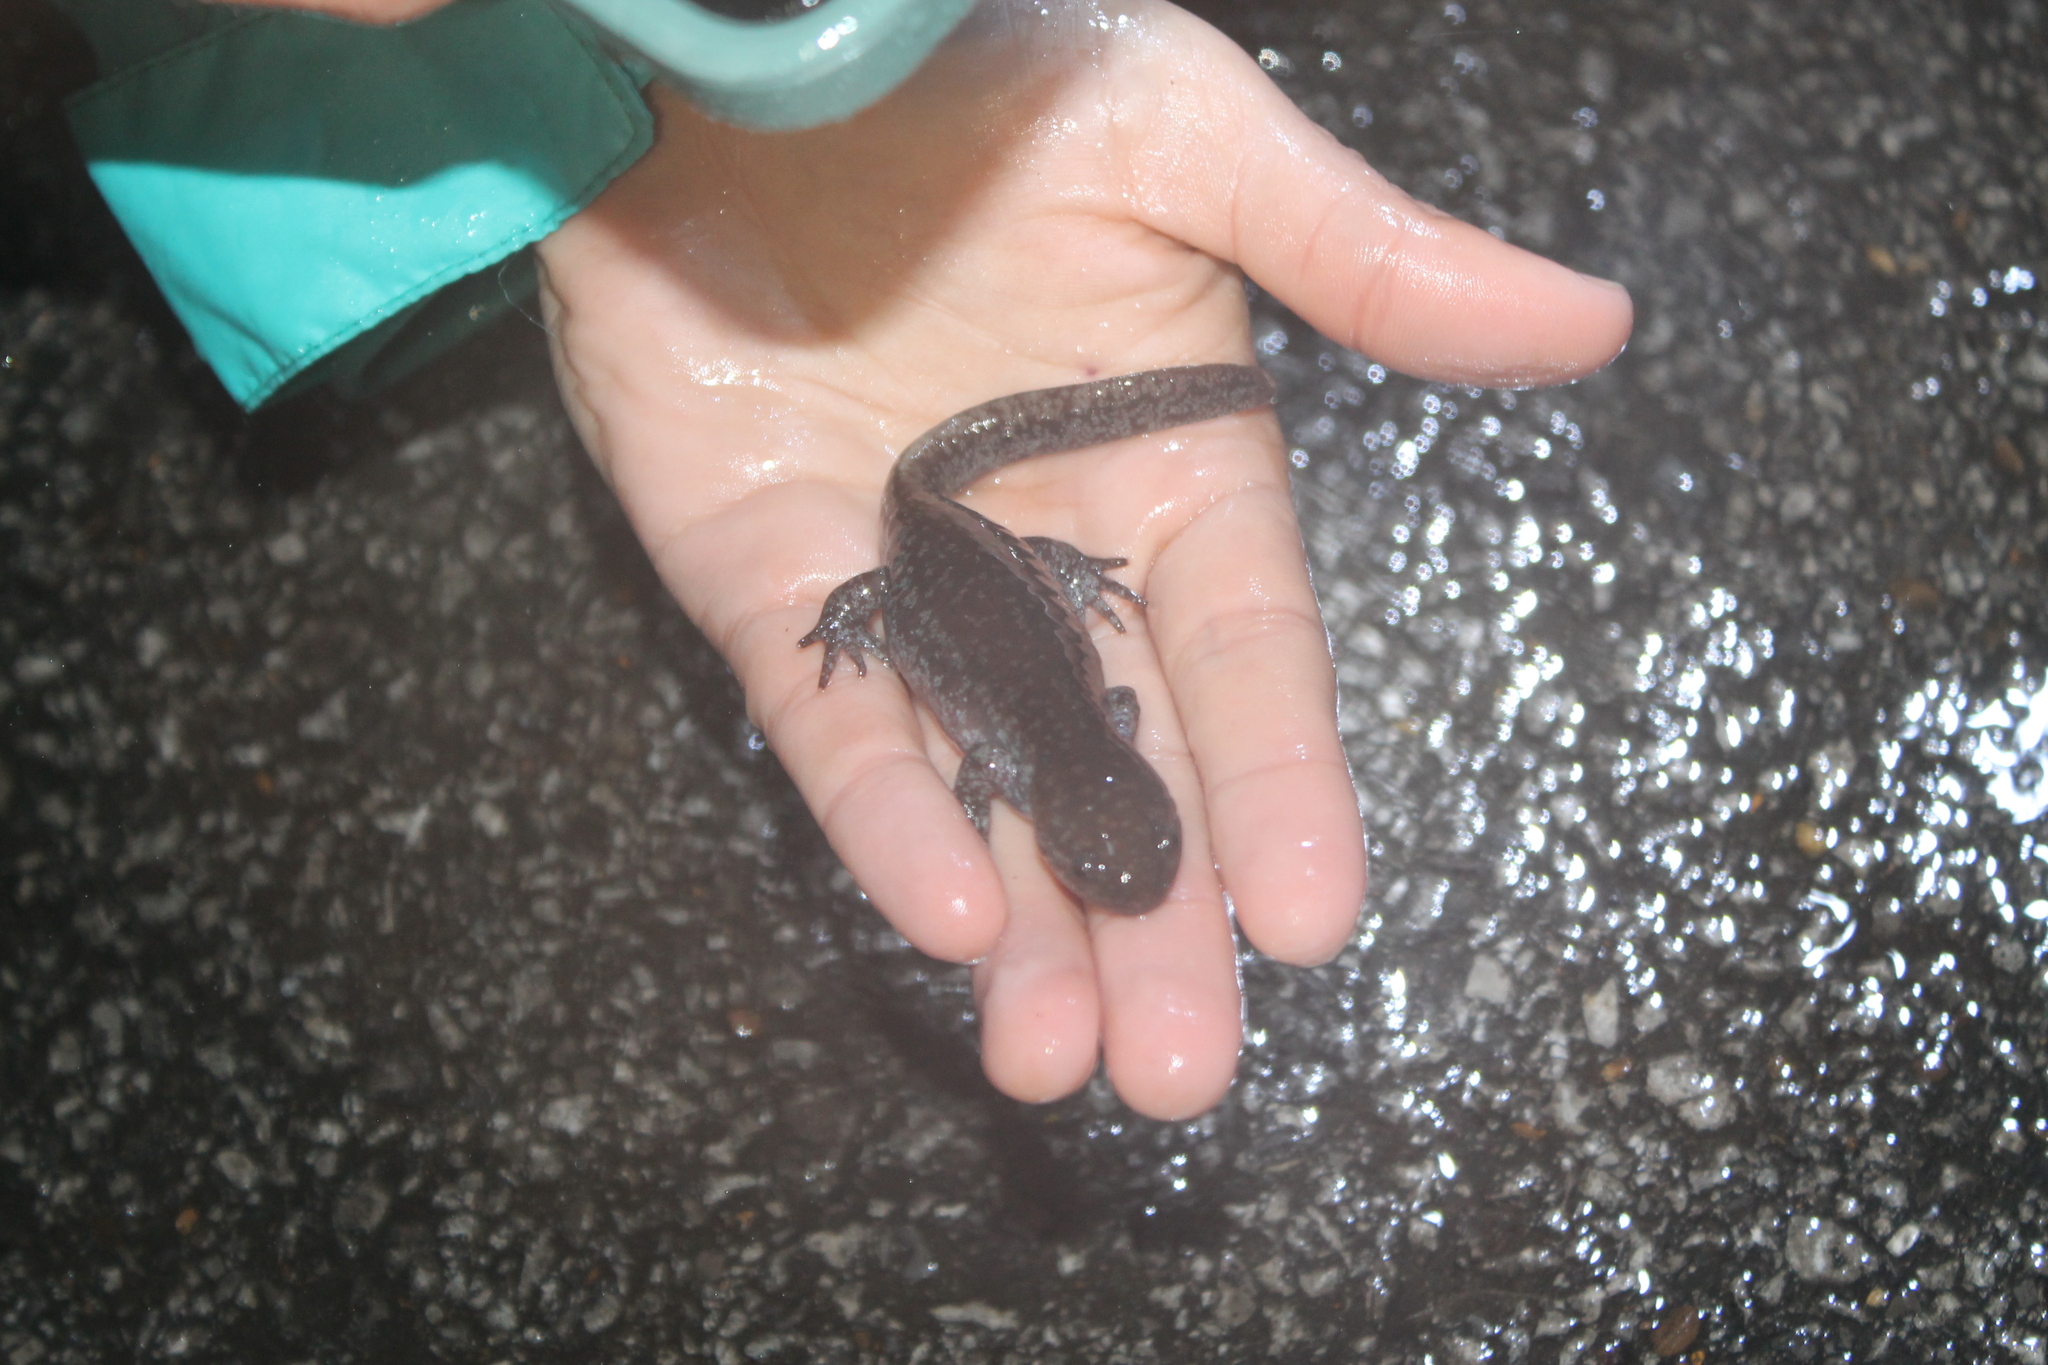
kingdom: Animalia
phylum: Chordata
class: Amphibia
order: Caudata
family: Ambystomatidae
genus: Ambystoma
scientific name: Ambystoma talpoideum
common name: Mole salamander
